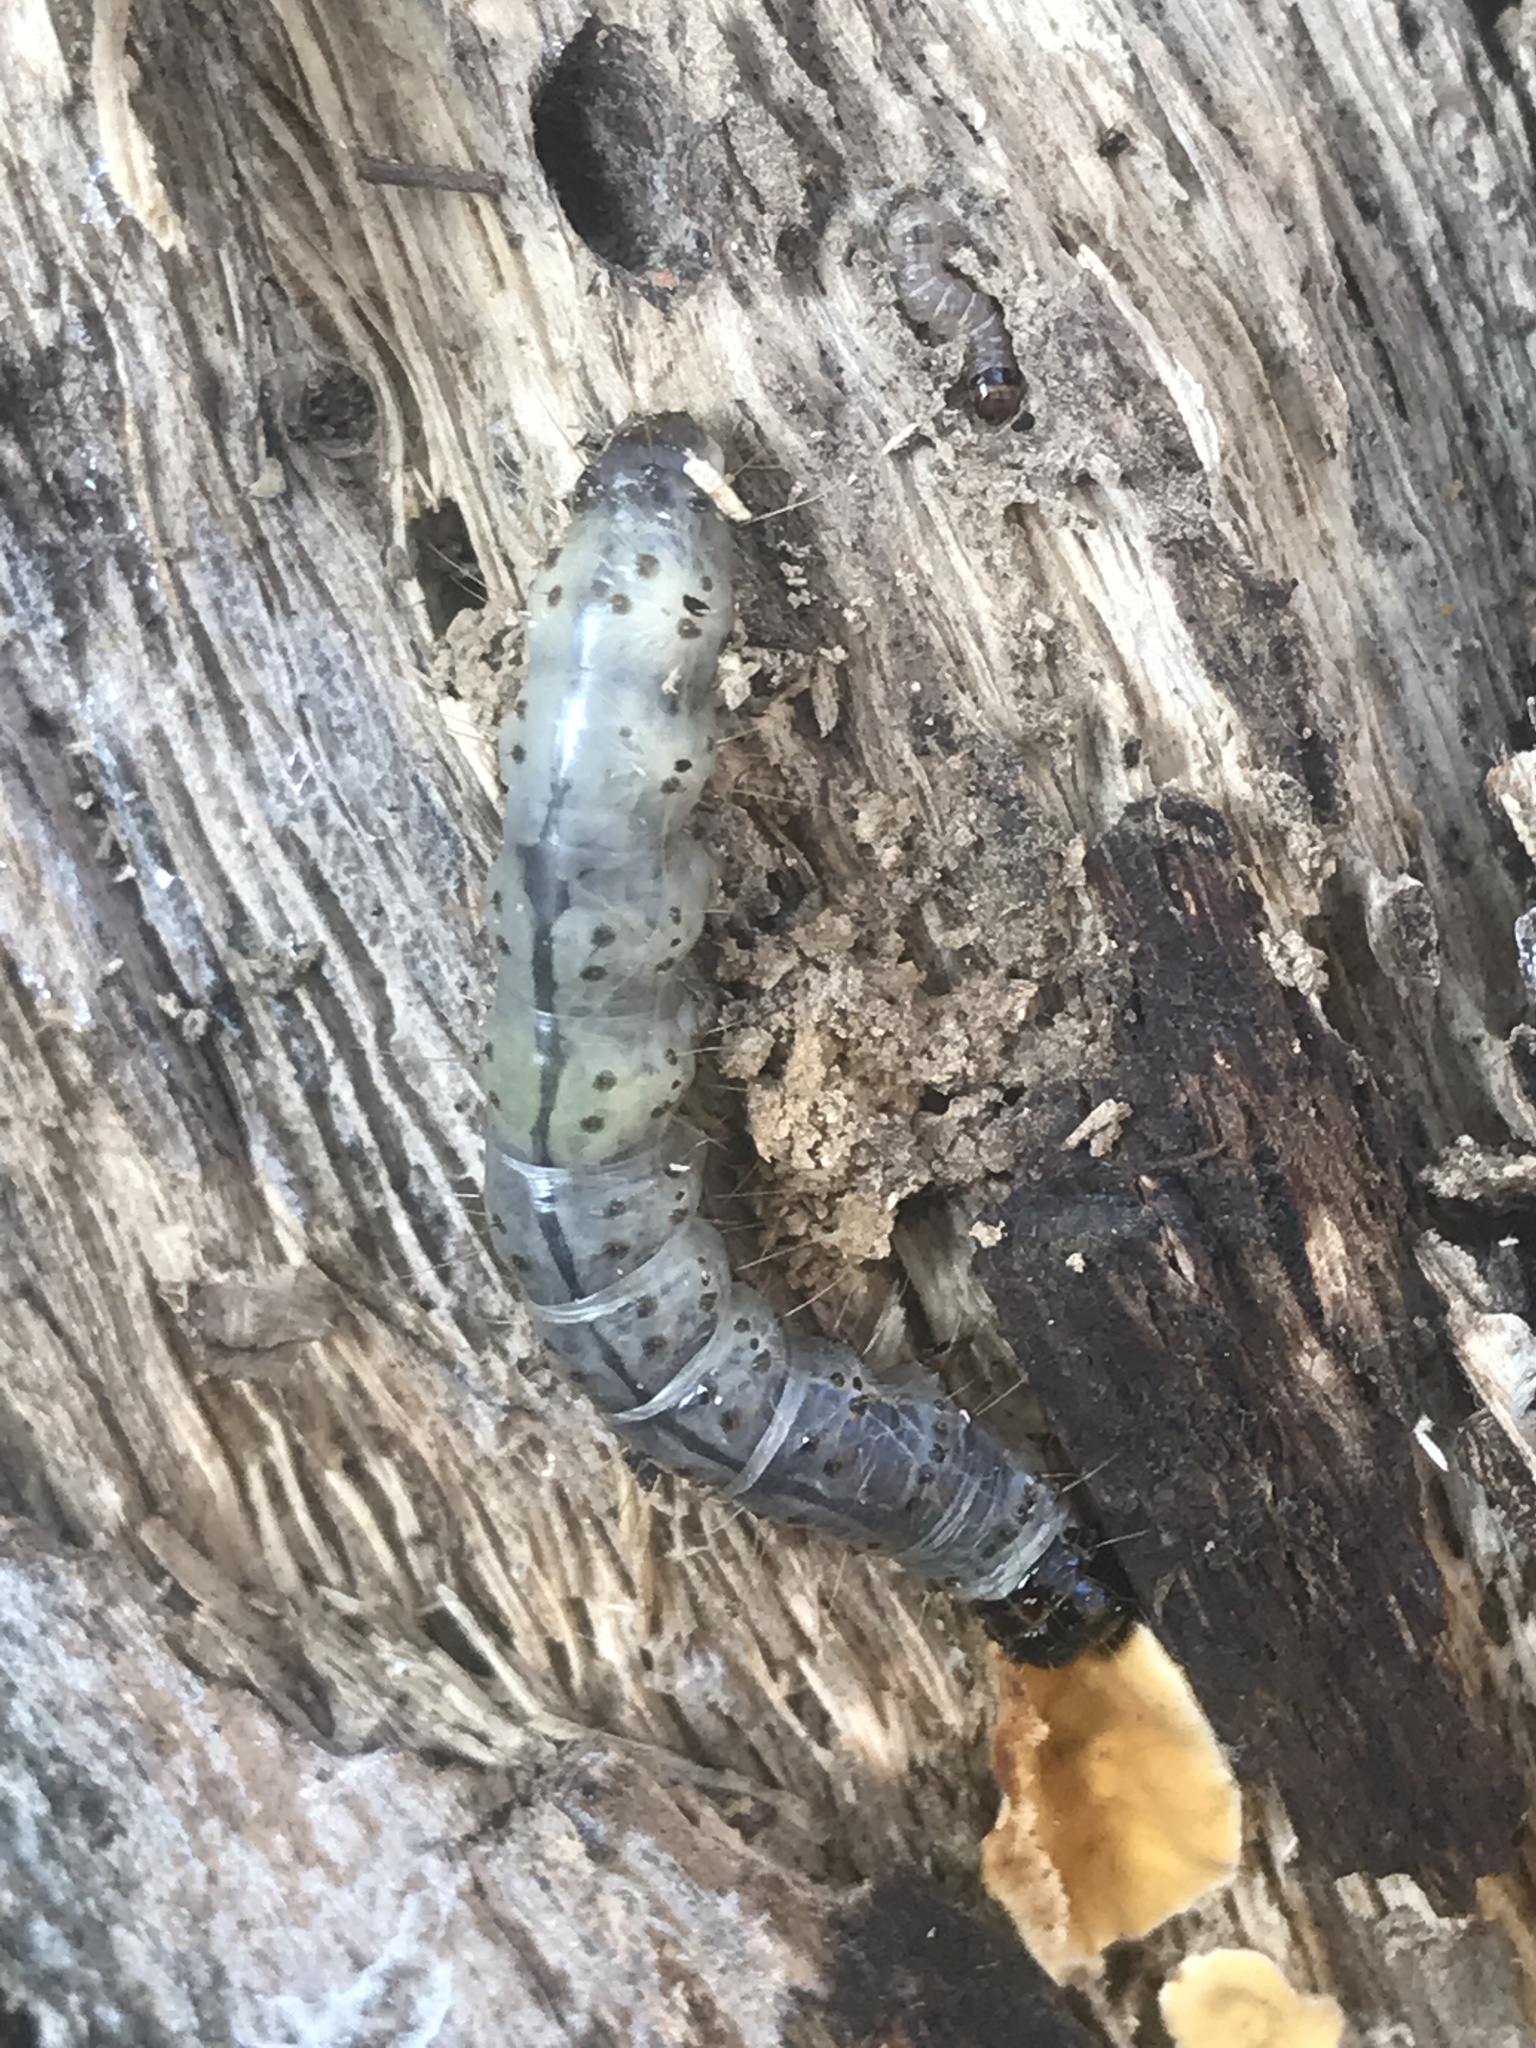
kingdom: Animalia
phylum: Arthropoda
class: Insecta
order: Lepidoptera
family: Erebidae
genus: Scolecocampa
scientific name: Scolecocampa liburna
